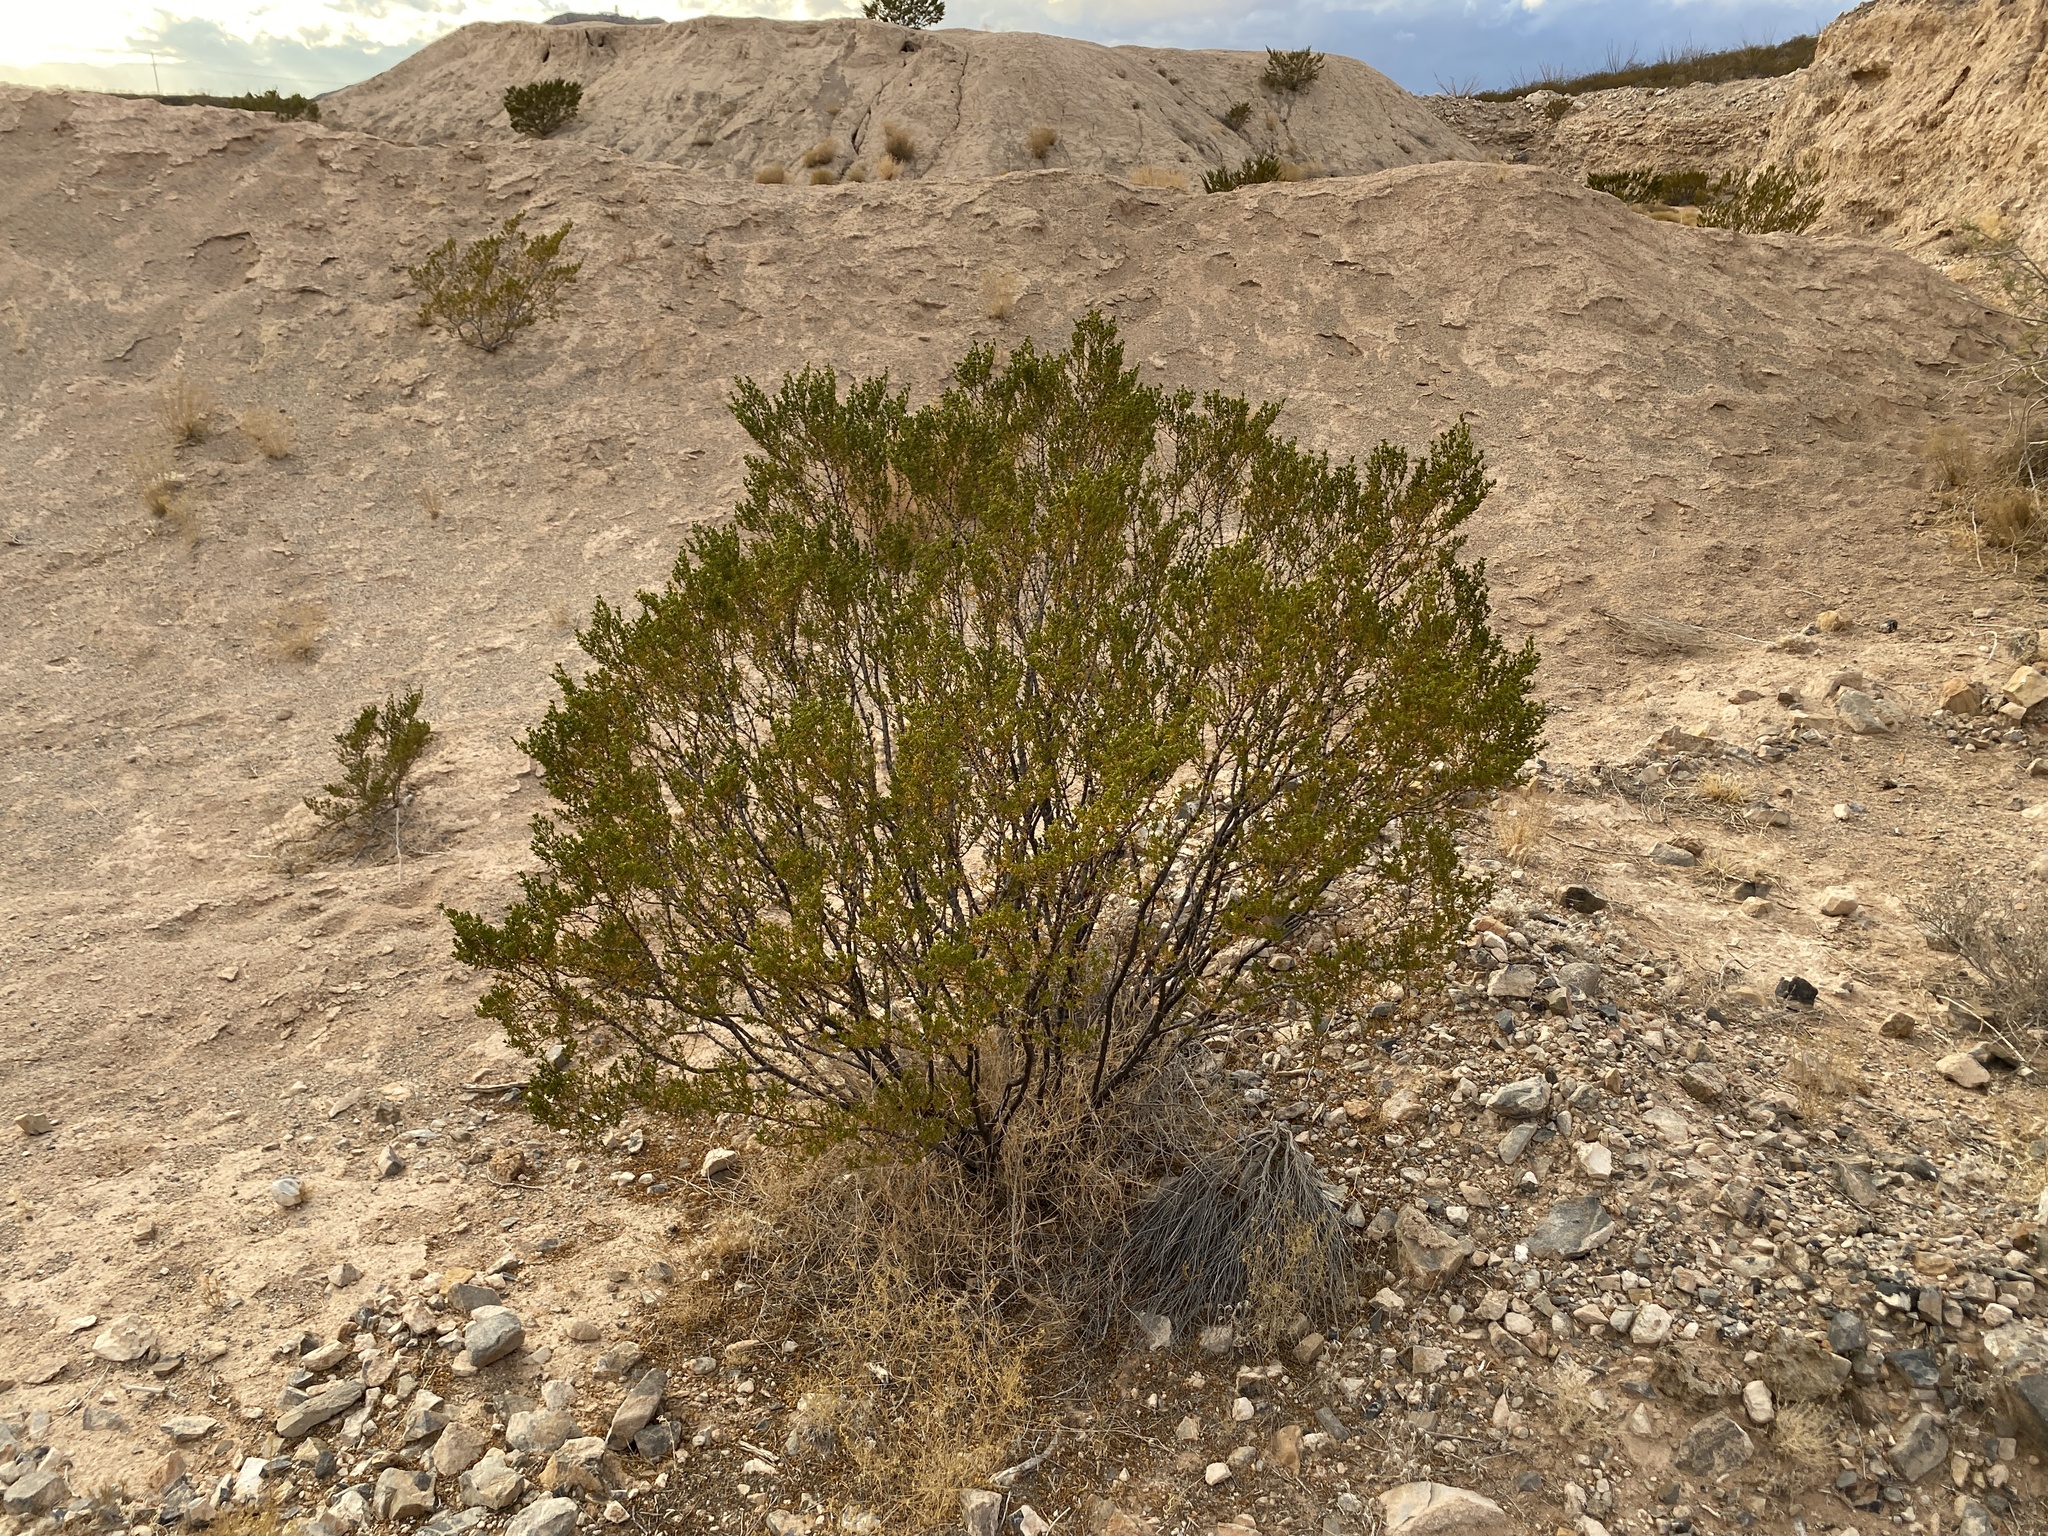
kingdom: Plantae
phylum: Tracheophyta
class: Magnoliopsida
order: Zygophyllales
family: Zygophyllaceae
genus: Larrea
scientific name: Larrea tridentata
